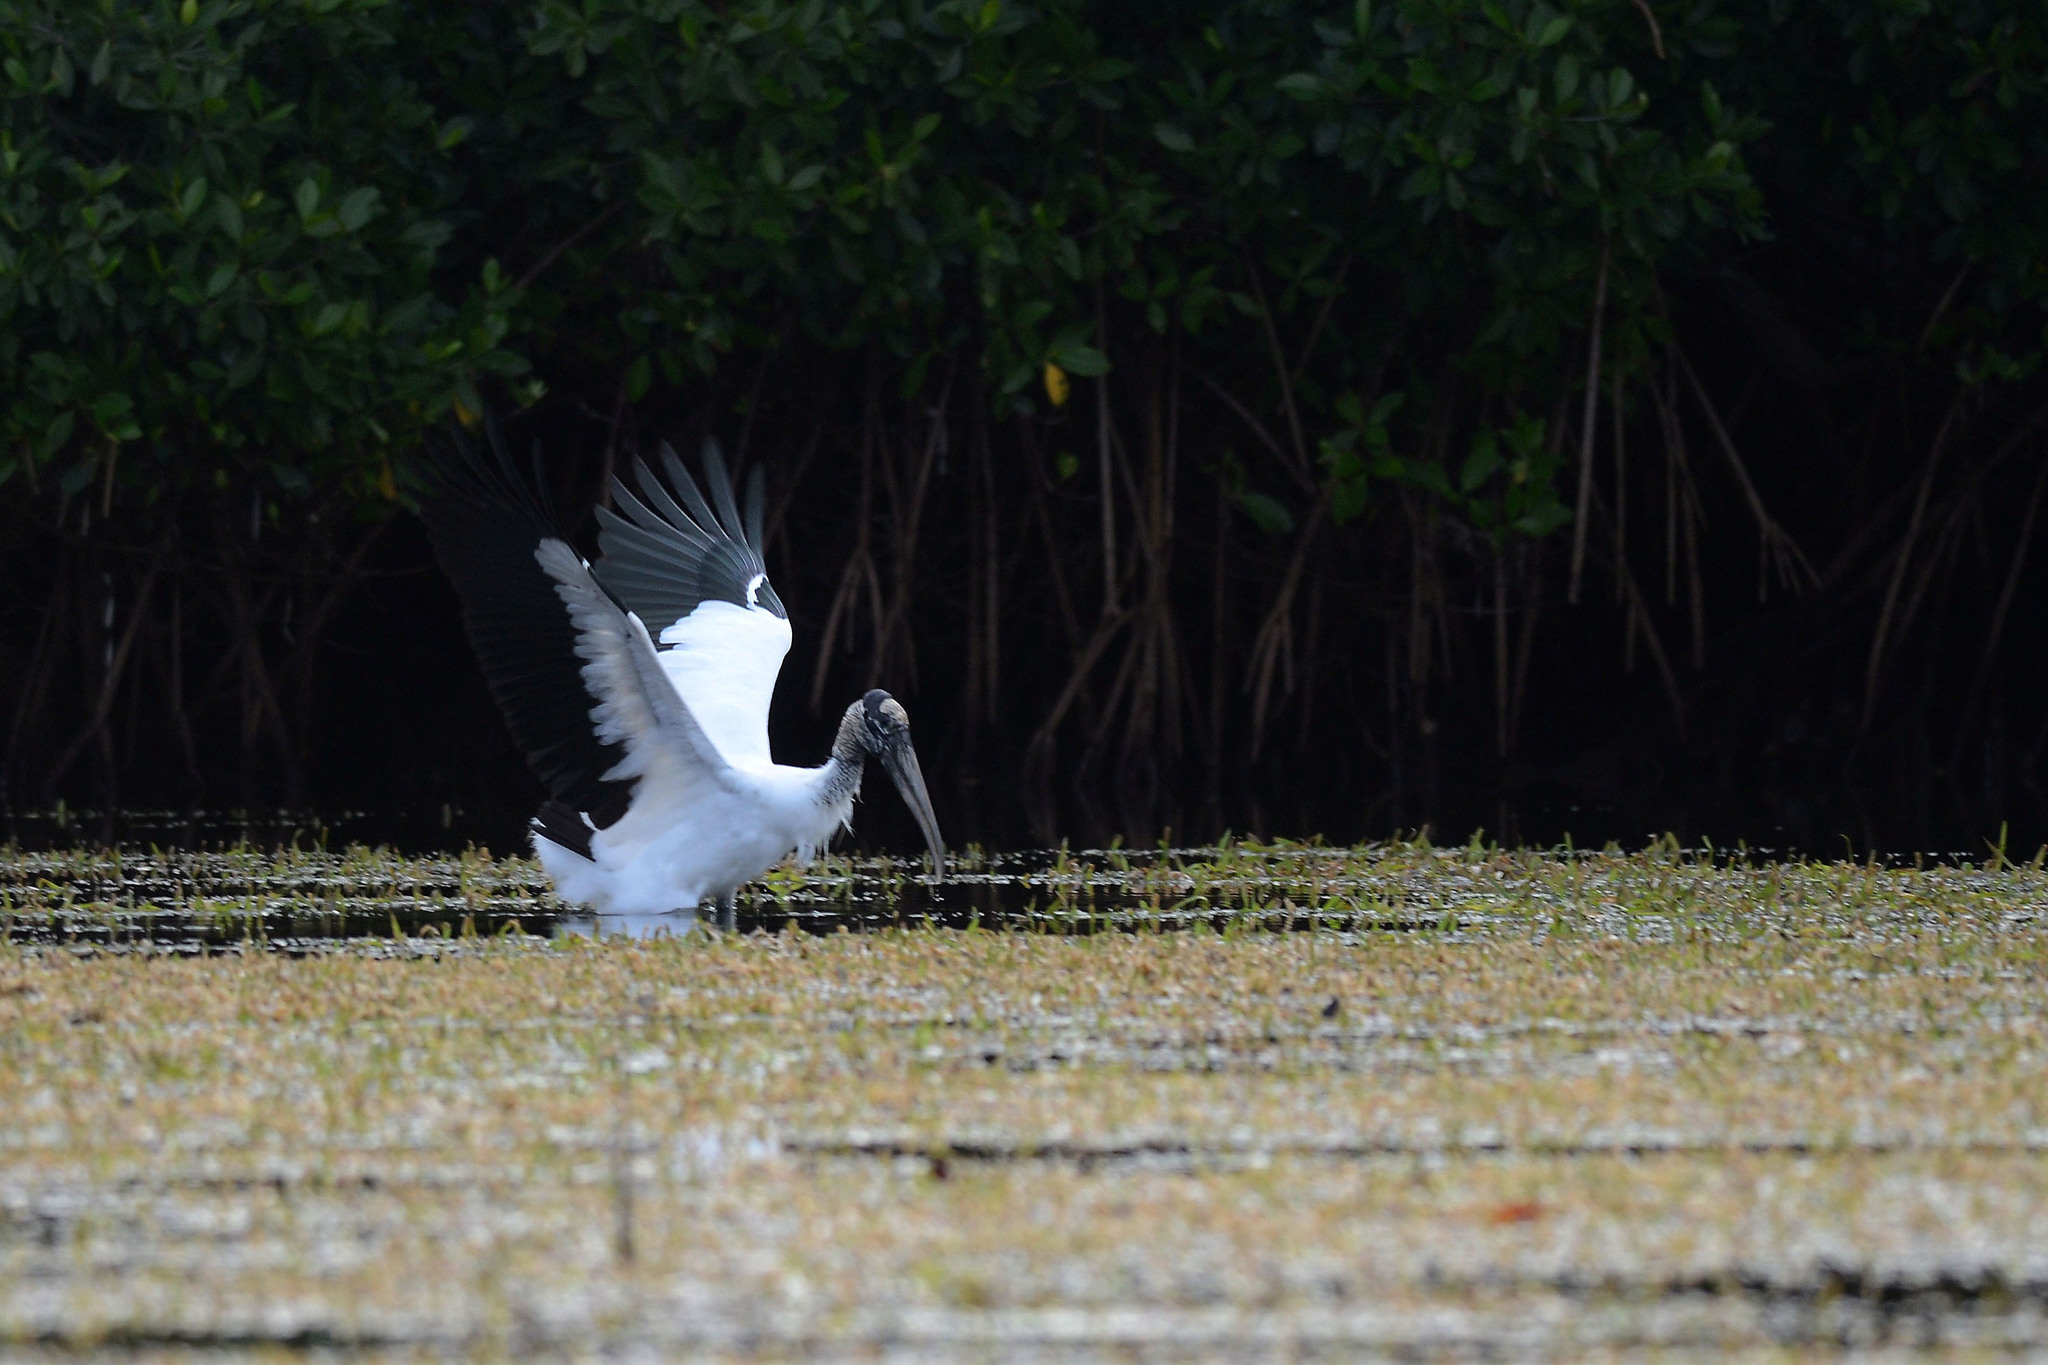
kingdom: Animalia
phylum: Chordata
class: Aves
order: Ciconiiformes
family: Ciconiidae
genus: Mycteria
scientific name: Mycteria americana
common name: Wood stork
